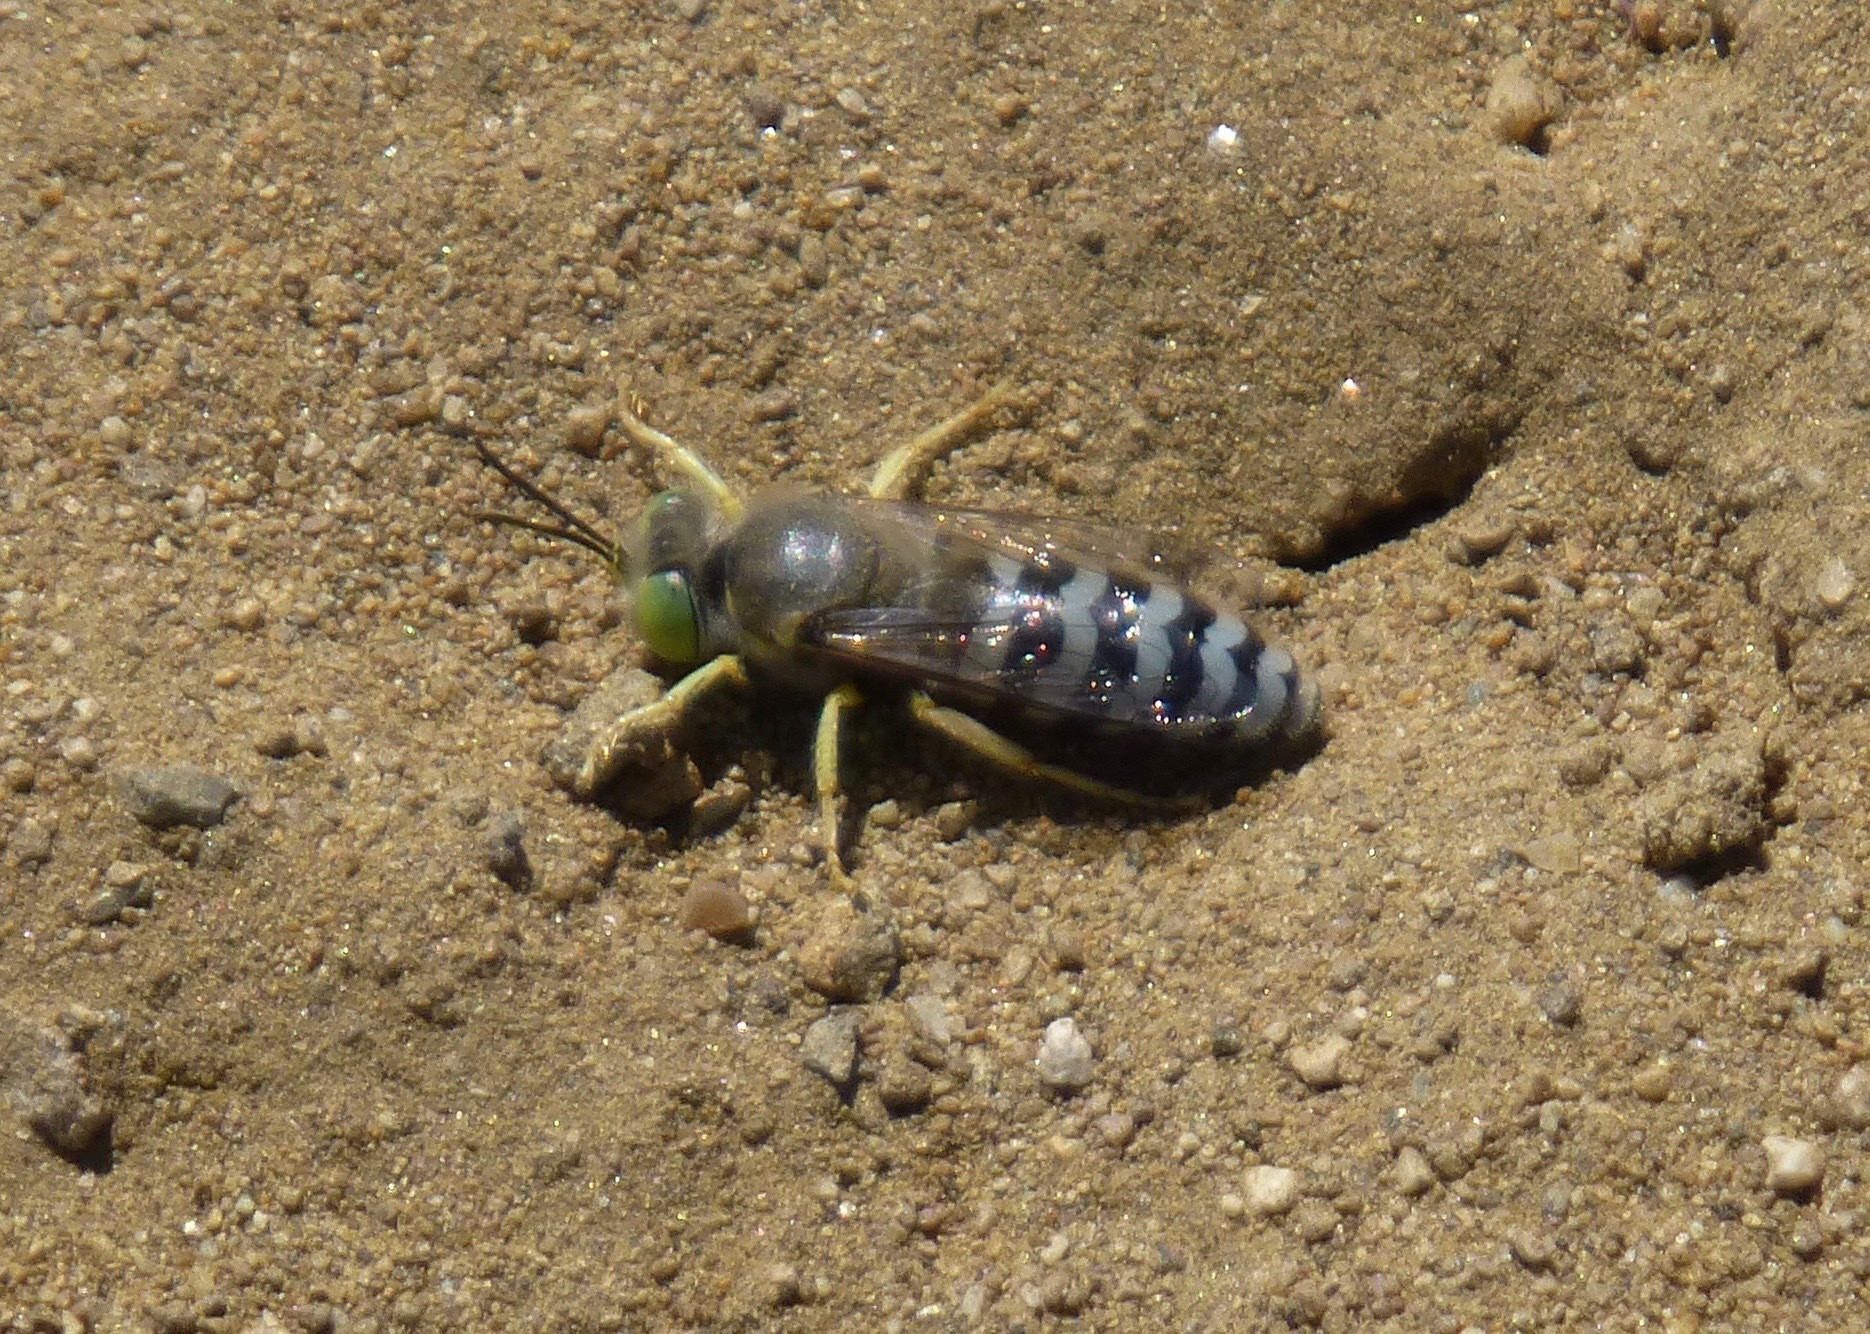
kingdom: Animalia
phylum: Arthropoda
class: Insecta
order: Hymenoptera
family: Crabronidae
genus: Bembix
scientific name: Bembix americana
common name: American sand wasp
